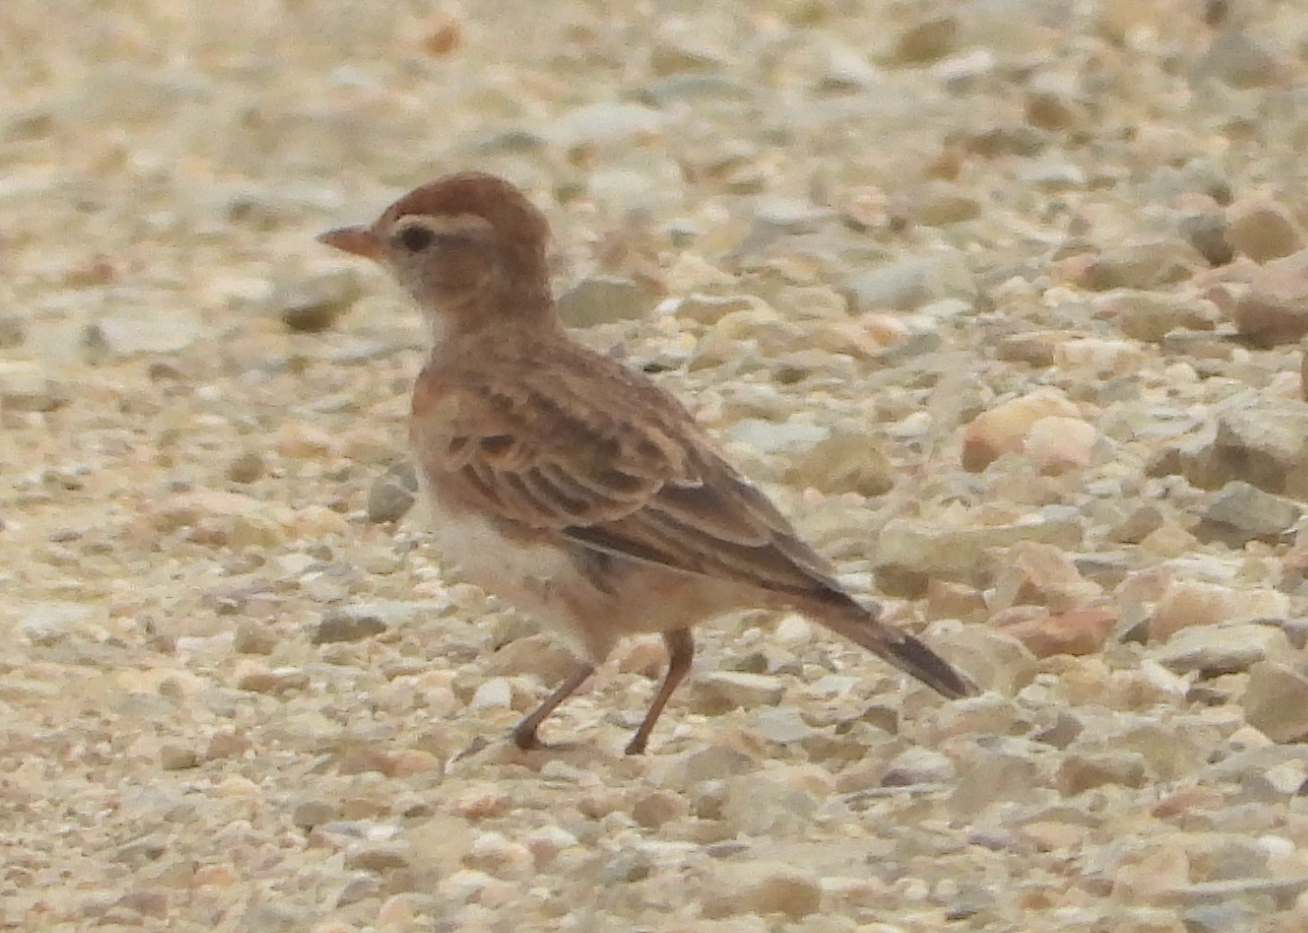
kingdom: Animalia
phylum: Chordata
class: Aves
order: Passeriformes
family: Alaudidae
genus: Calandrella
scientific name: Calandrella cinerea
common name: Red-capped lark
